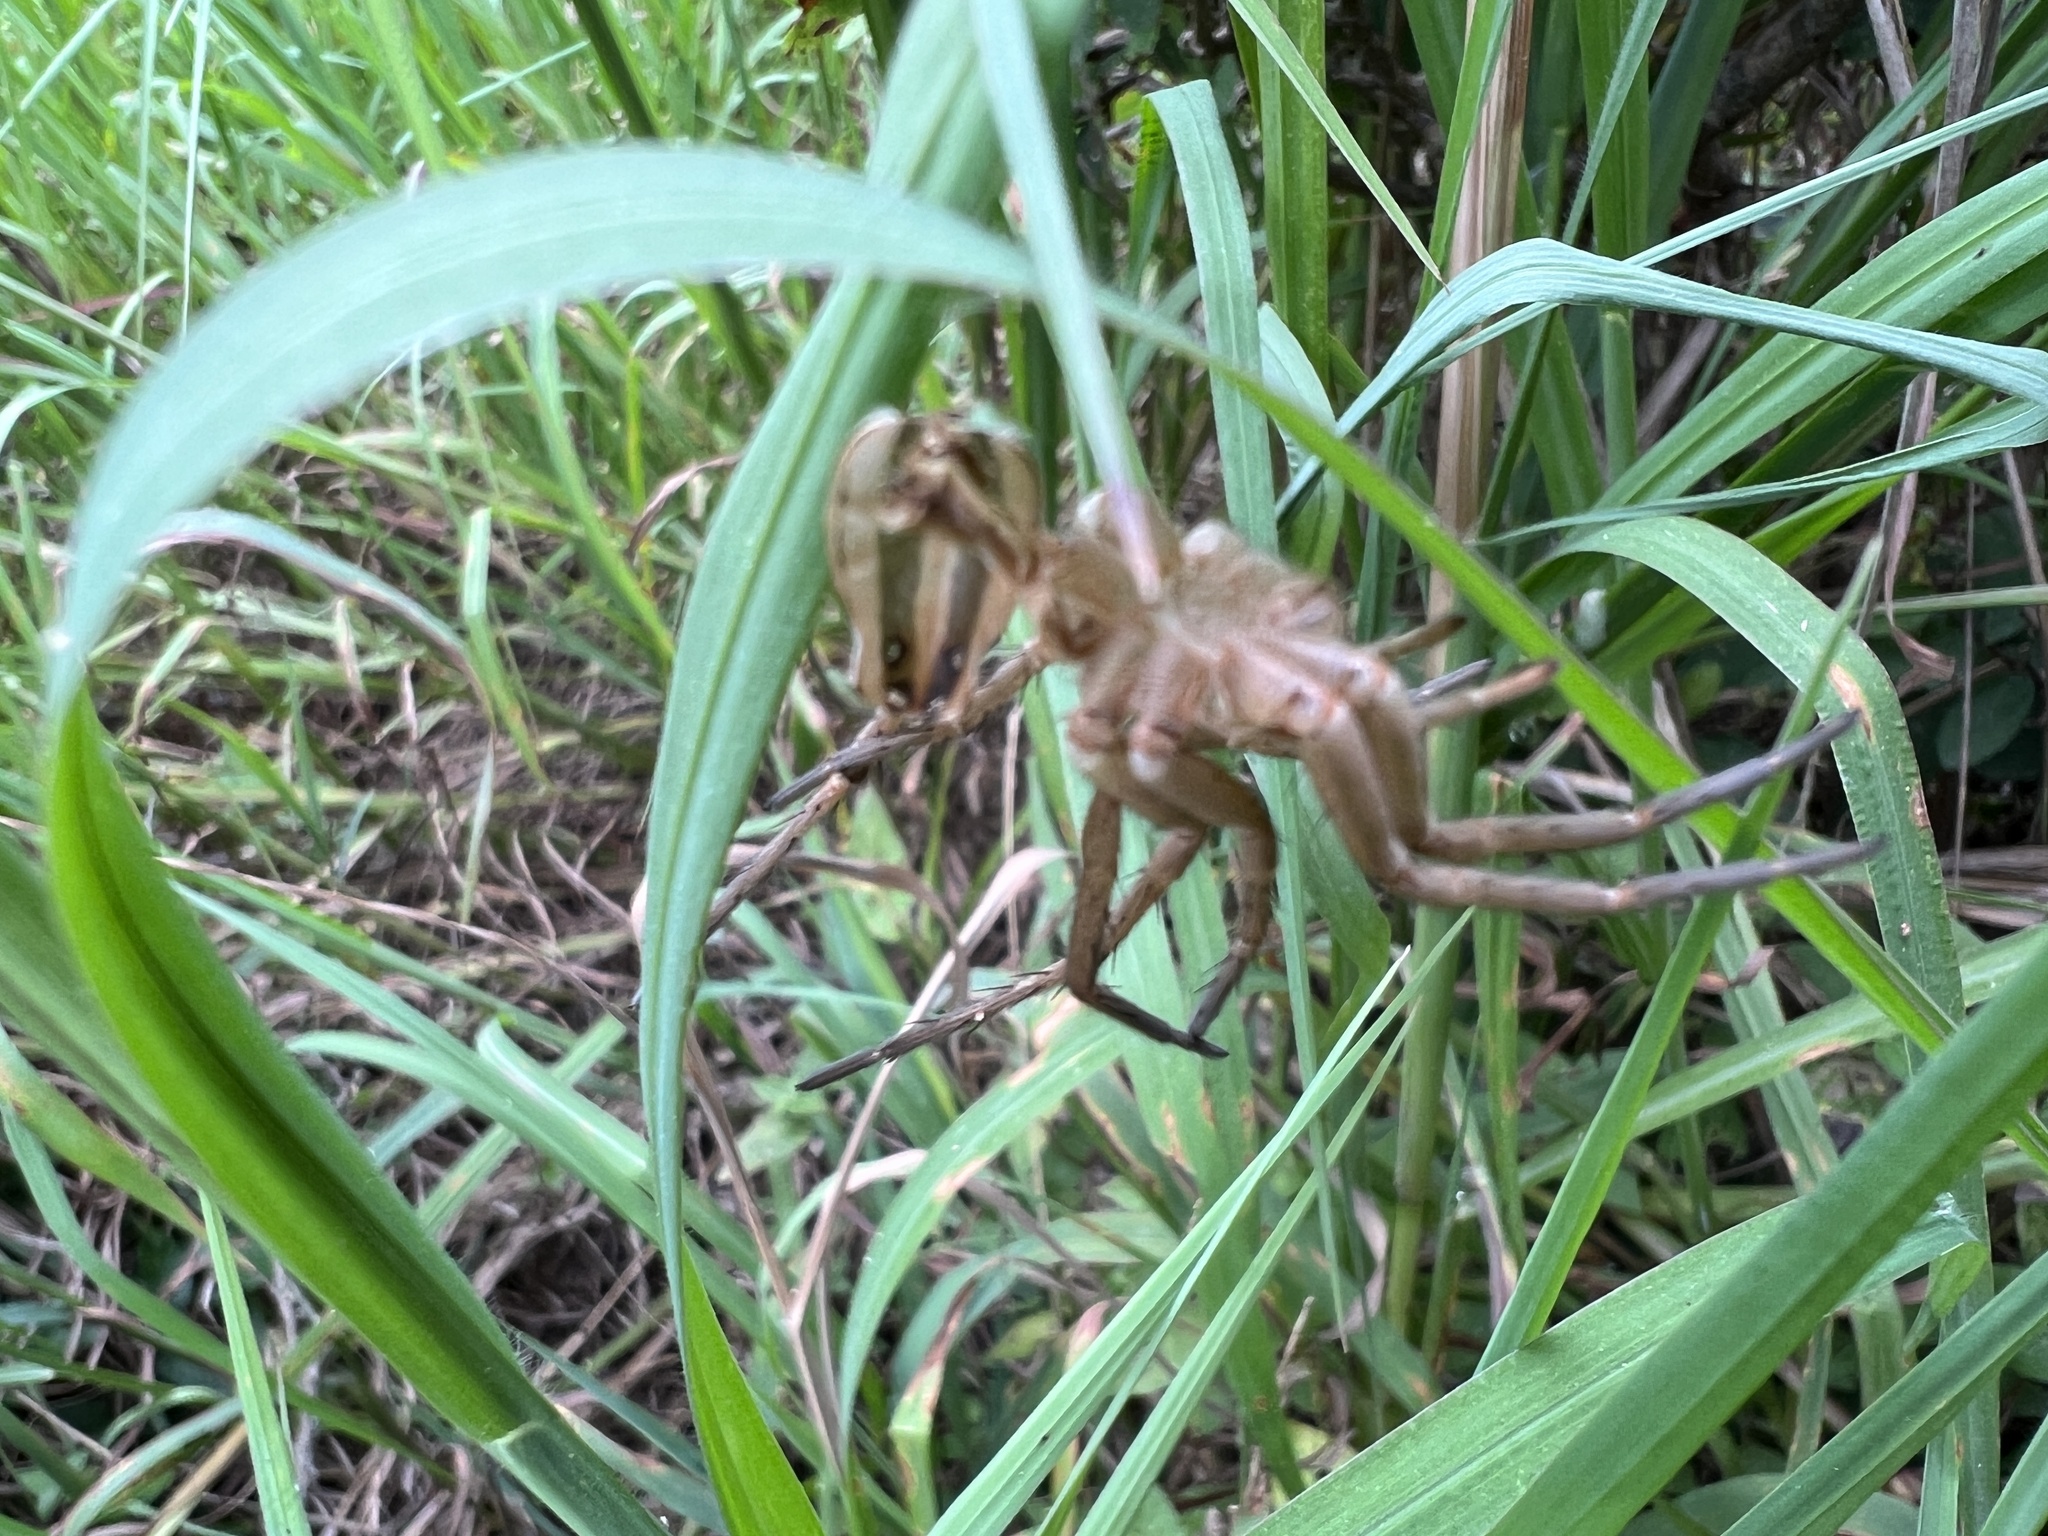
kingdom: Animalia
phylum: Arthropoda
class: Arachnida
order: Araneae
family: Lycosidae
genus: Rabidosa
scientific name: Rabidosa
